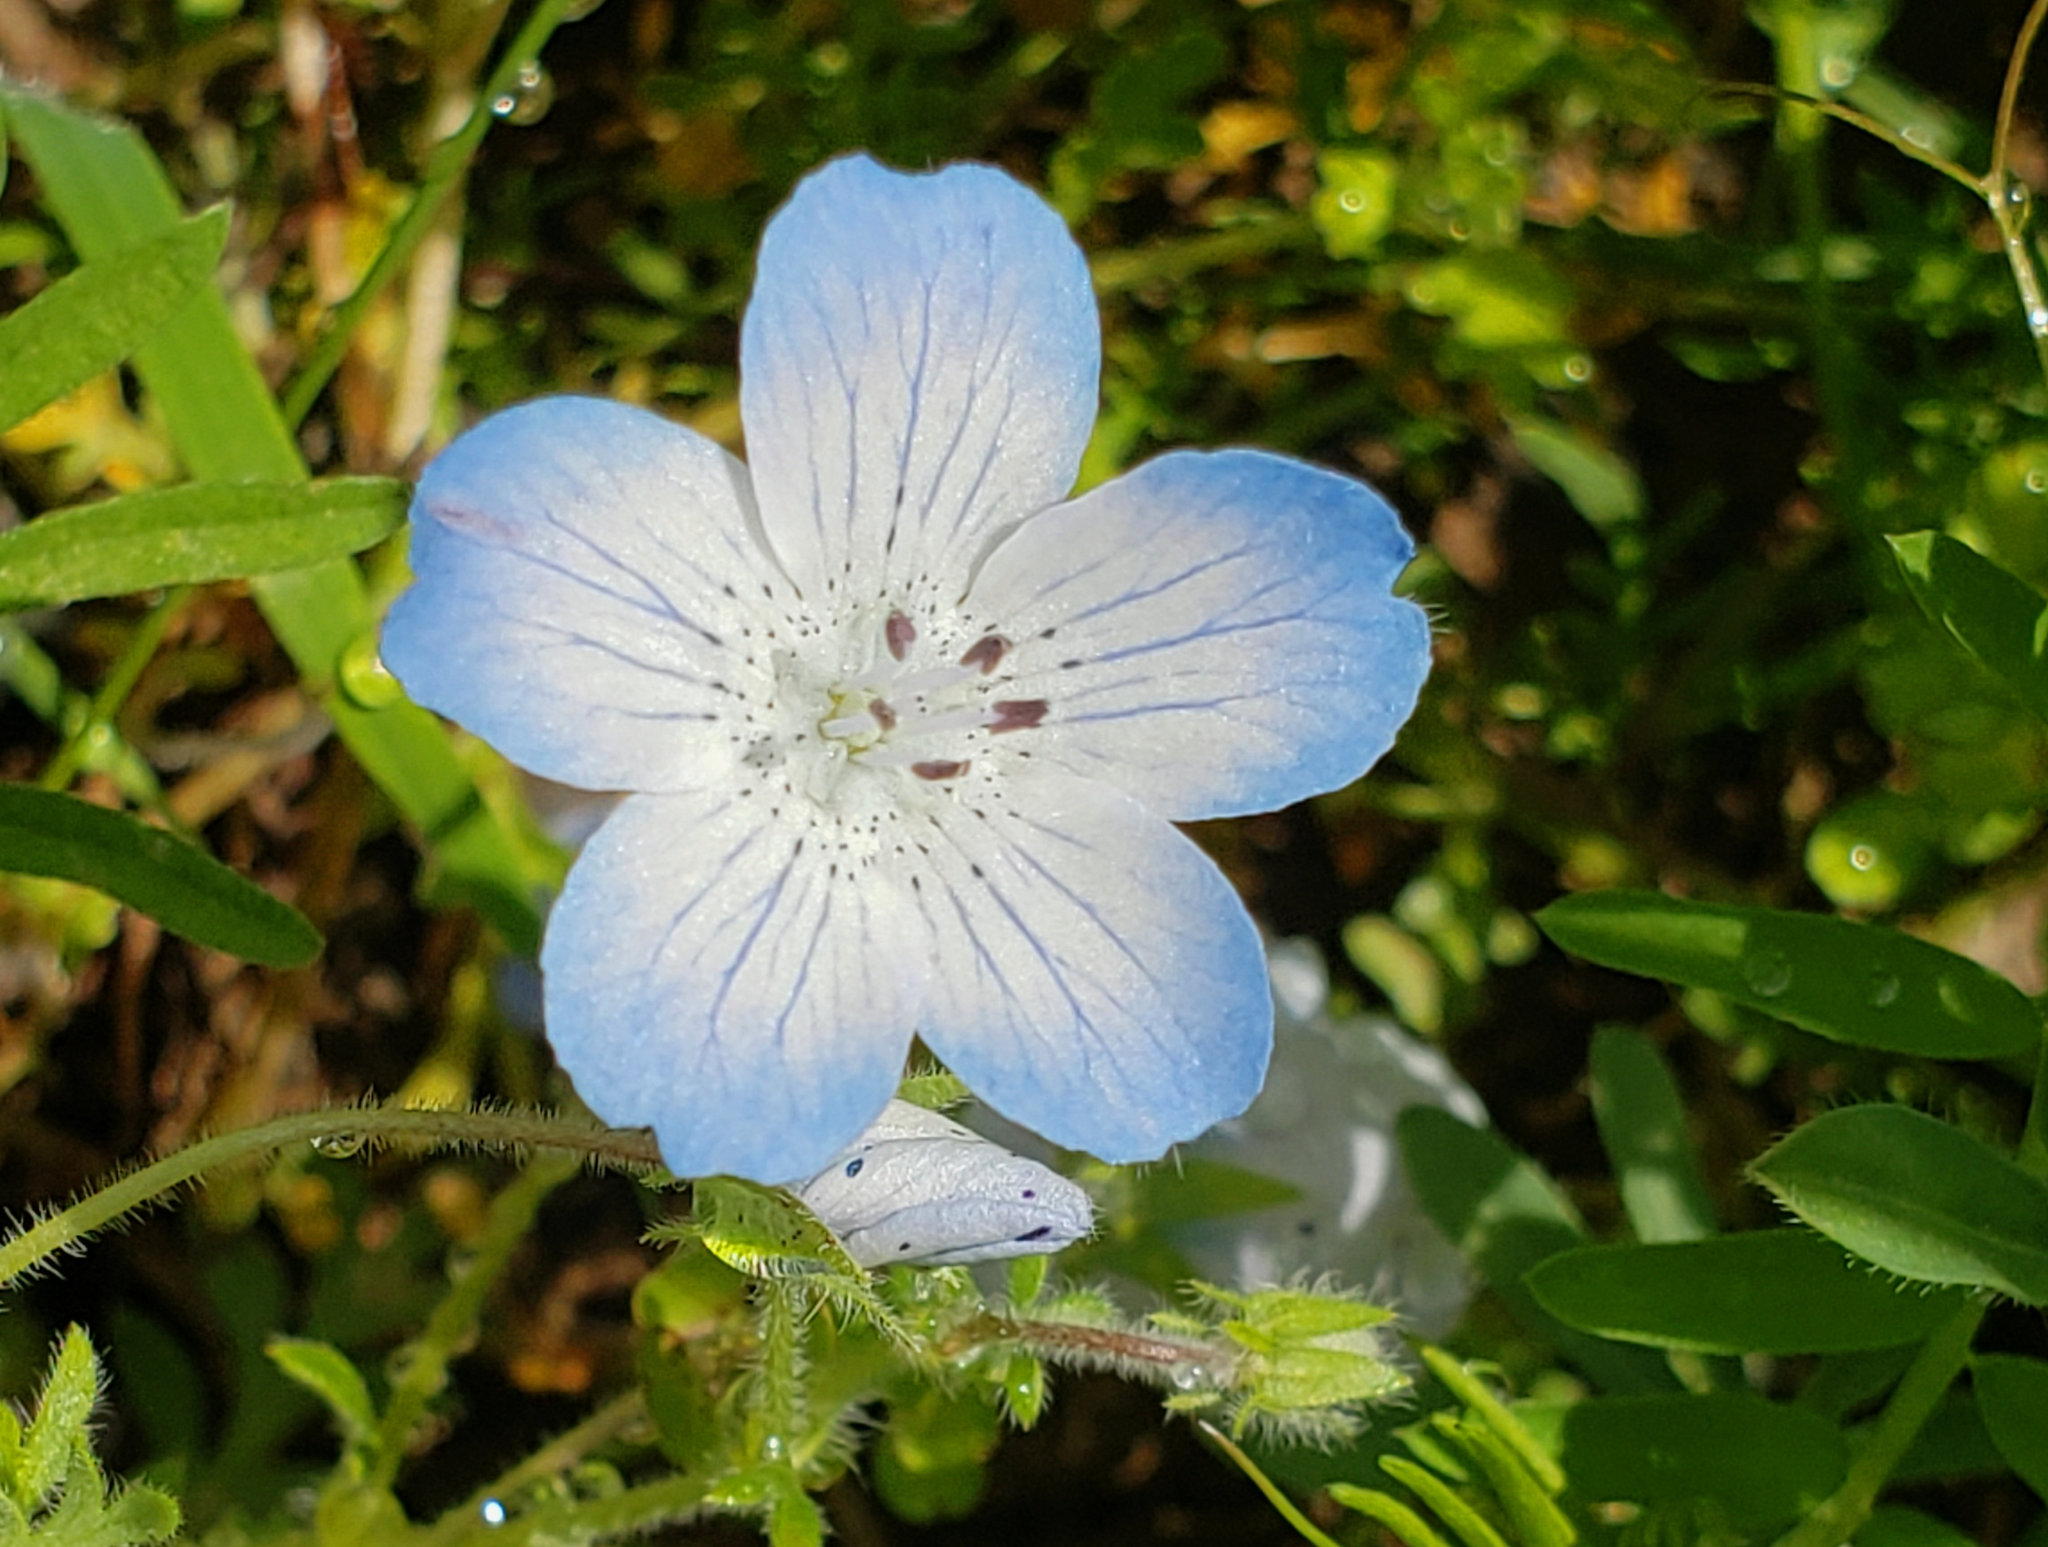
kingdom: Plantae
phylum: Tracheophyta
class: Magnoliopsida
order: Boraginales
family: Hydrophyllaceae
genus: Nemophila
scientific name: Nemophila menziesii
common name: Baby's-blue-eyes
